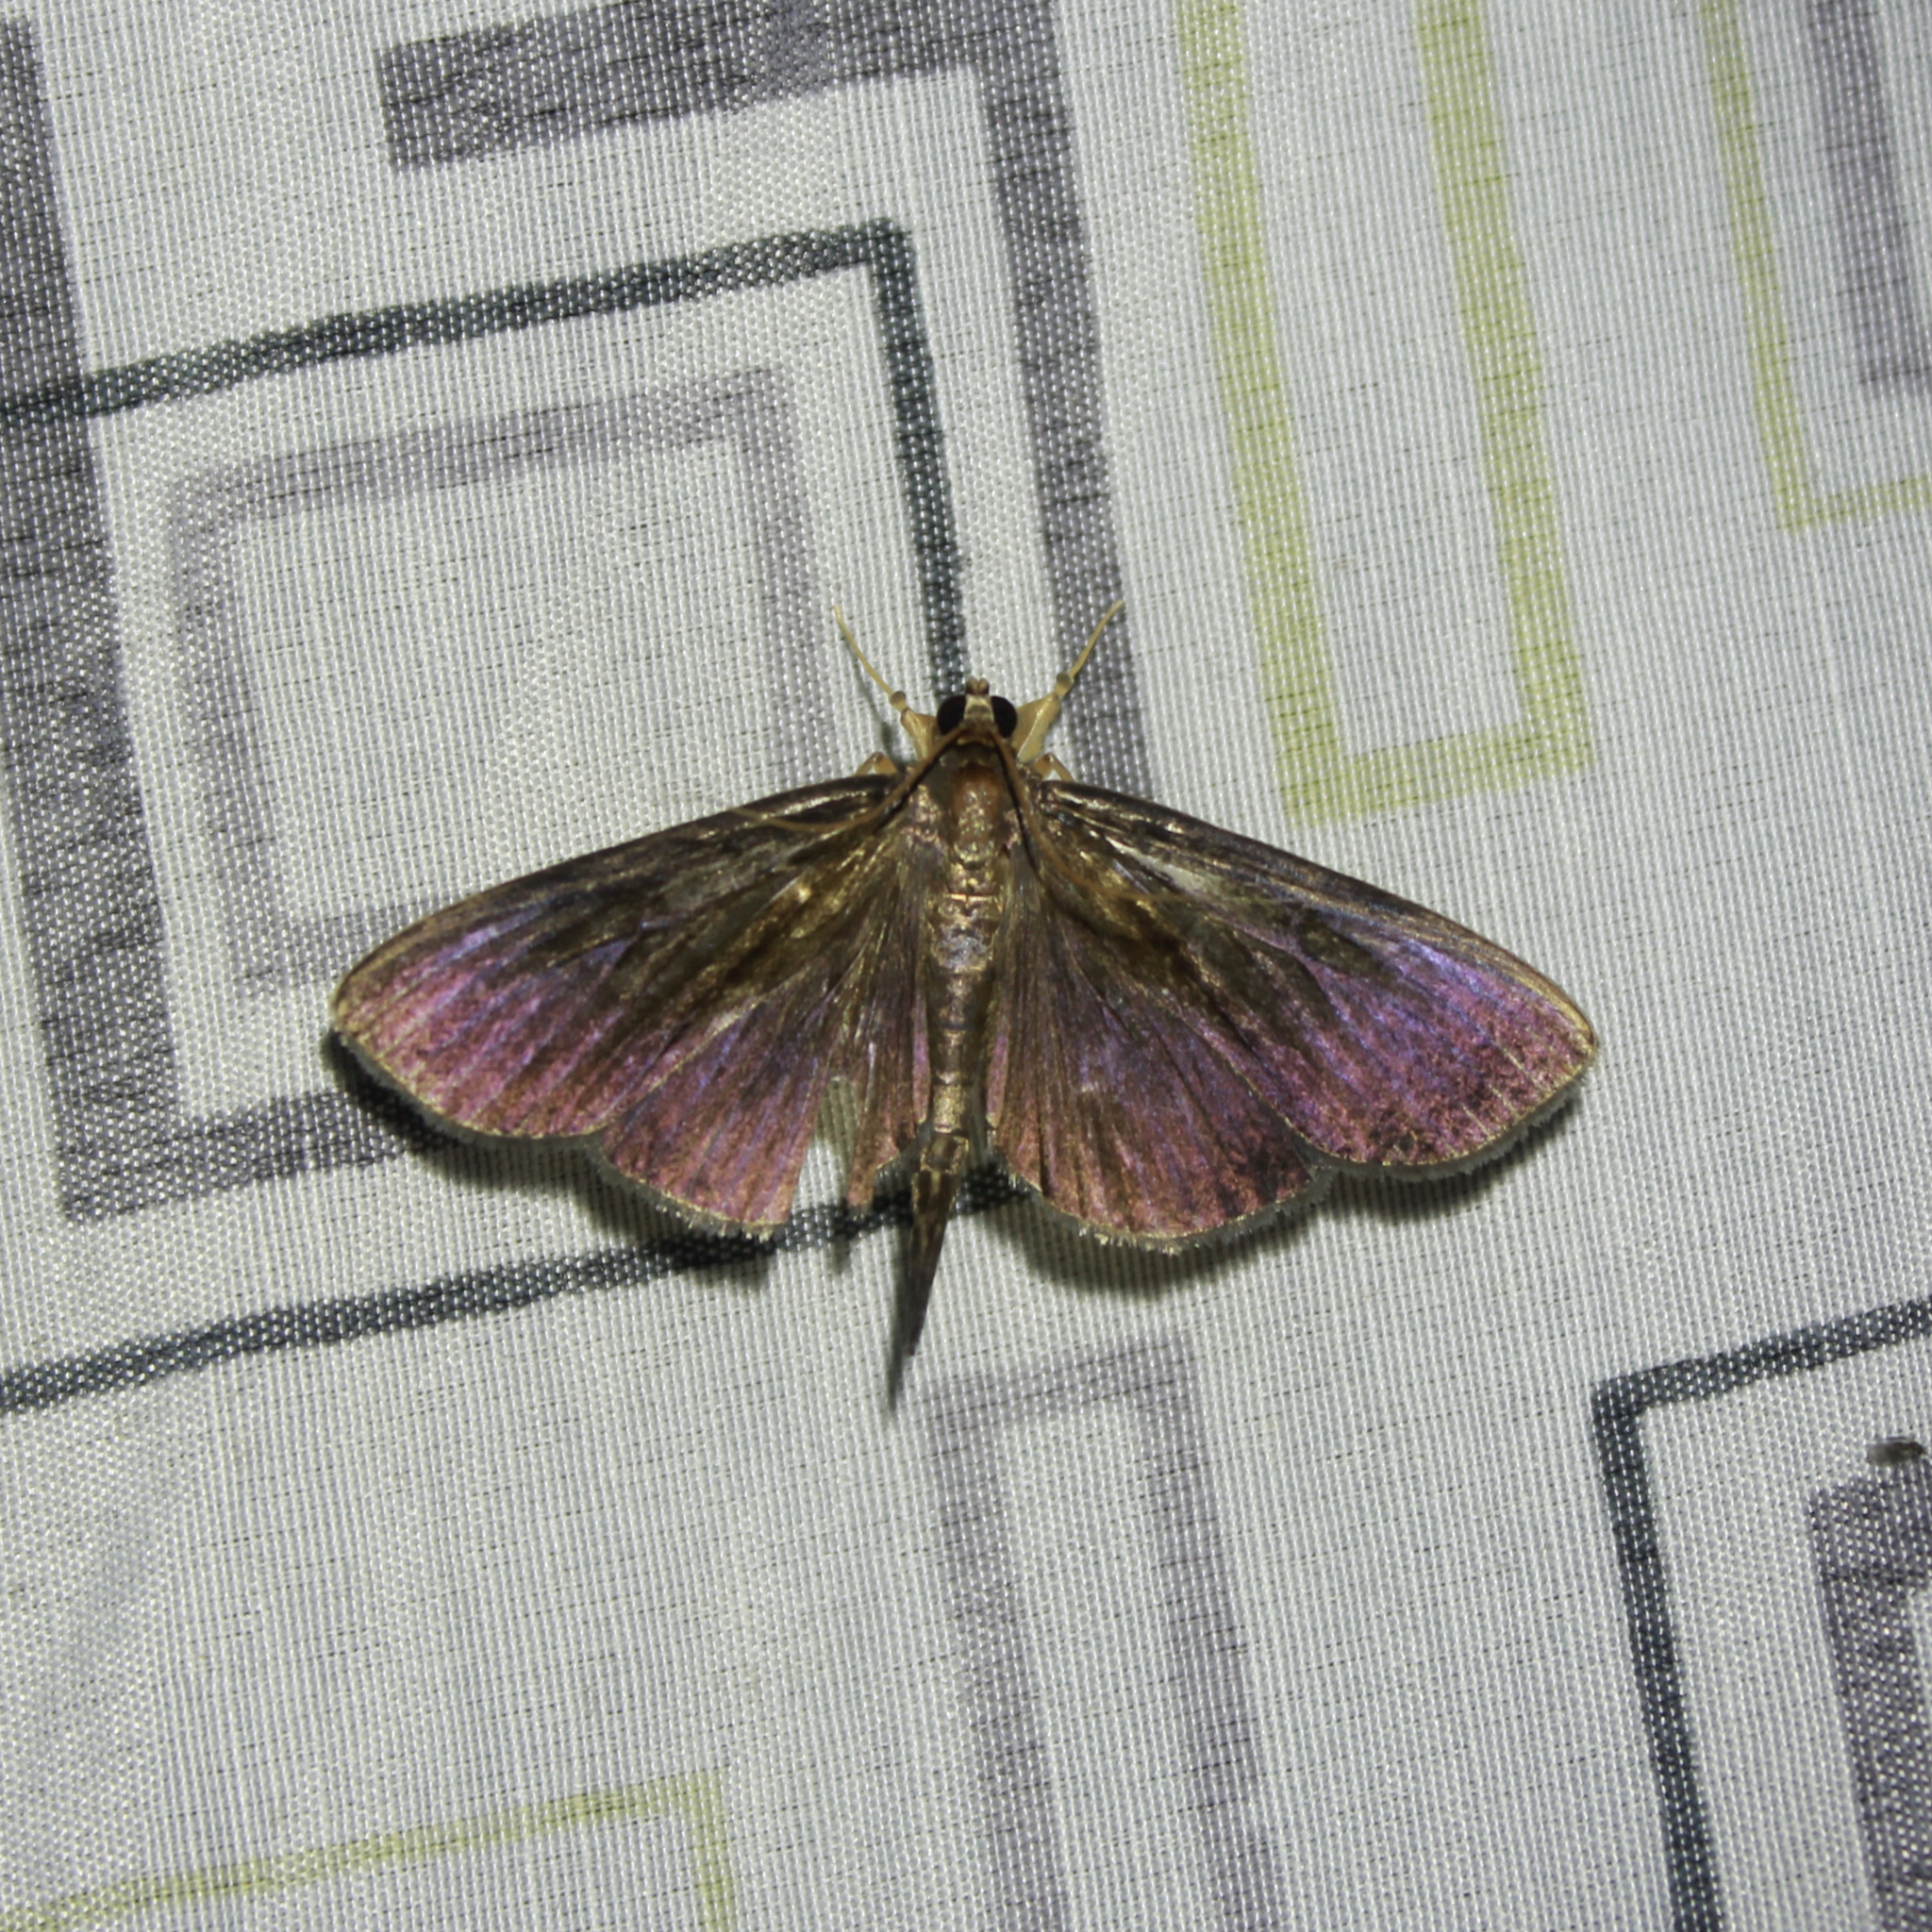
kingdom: Animalia
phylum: Arthropoda
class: Insecta
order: Lepidoptera
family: Crambidae
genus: Ceratocilia
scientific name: Ceratocilia
